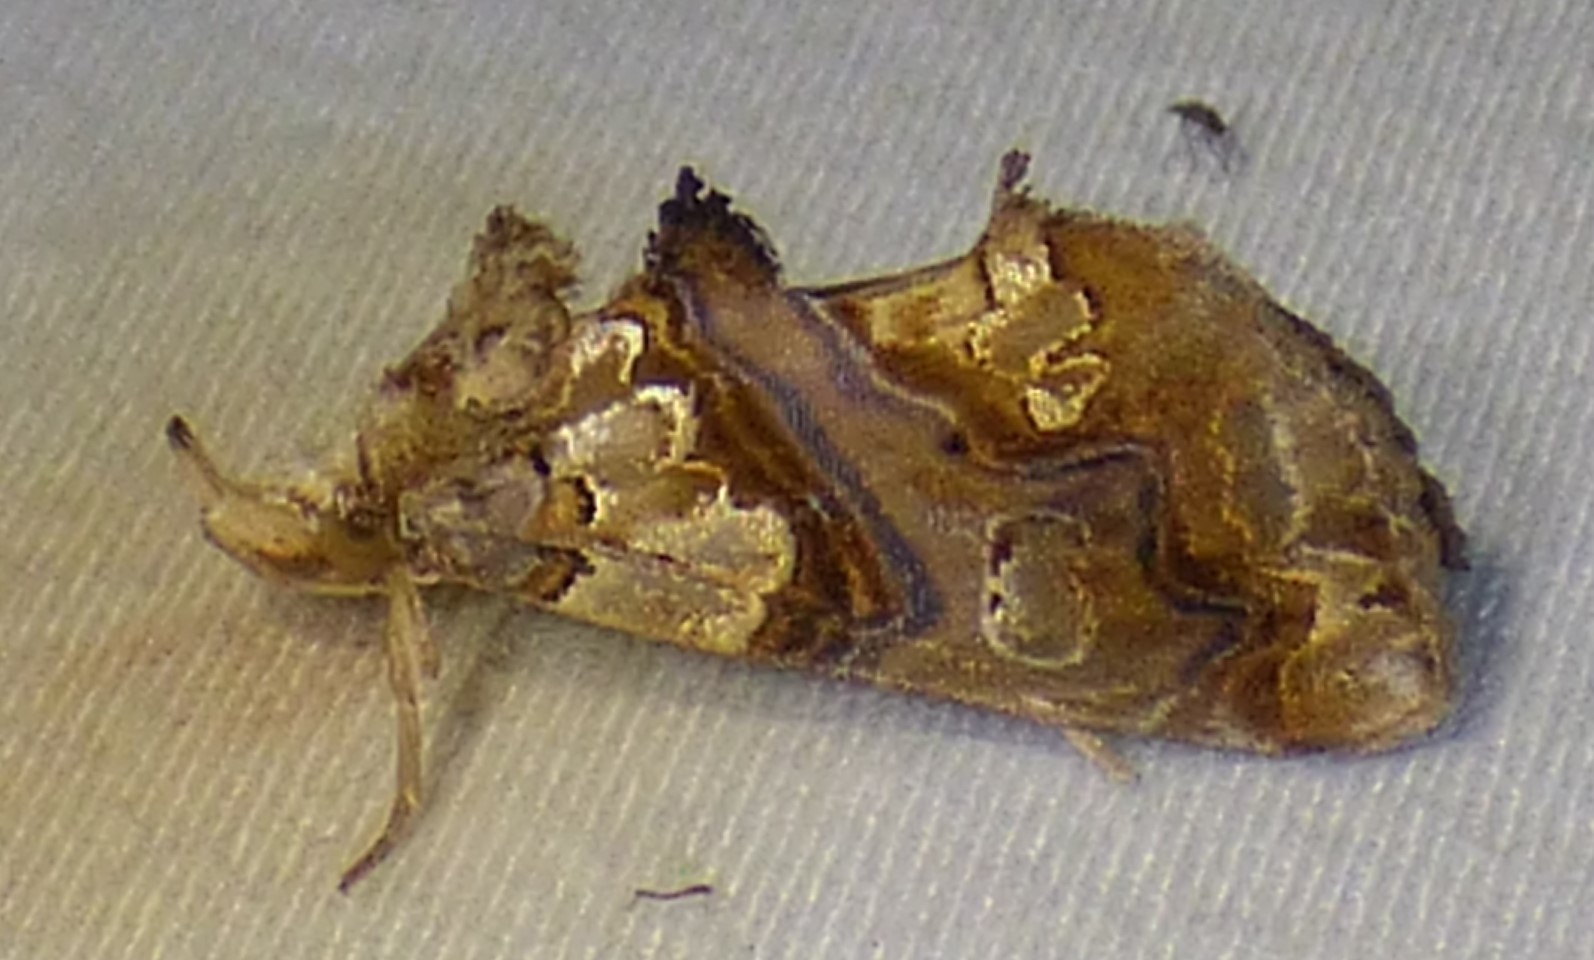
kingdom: Animalia
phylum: Arthropoda
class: Insecta
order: Lepidoptera
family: Erebidae
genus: Plusiodonta
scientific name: Plusiodonta compressipalpis
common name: Moonseed moth
